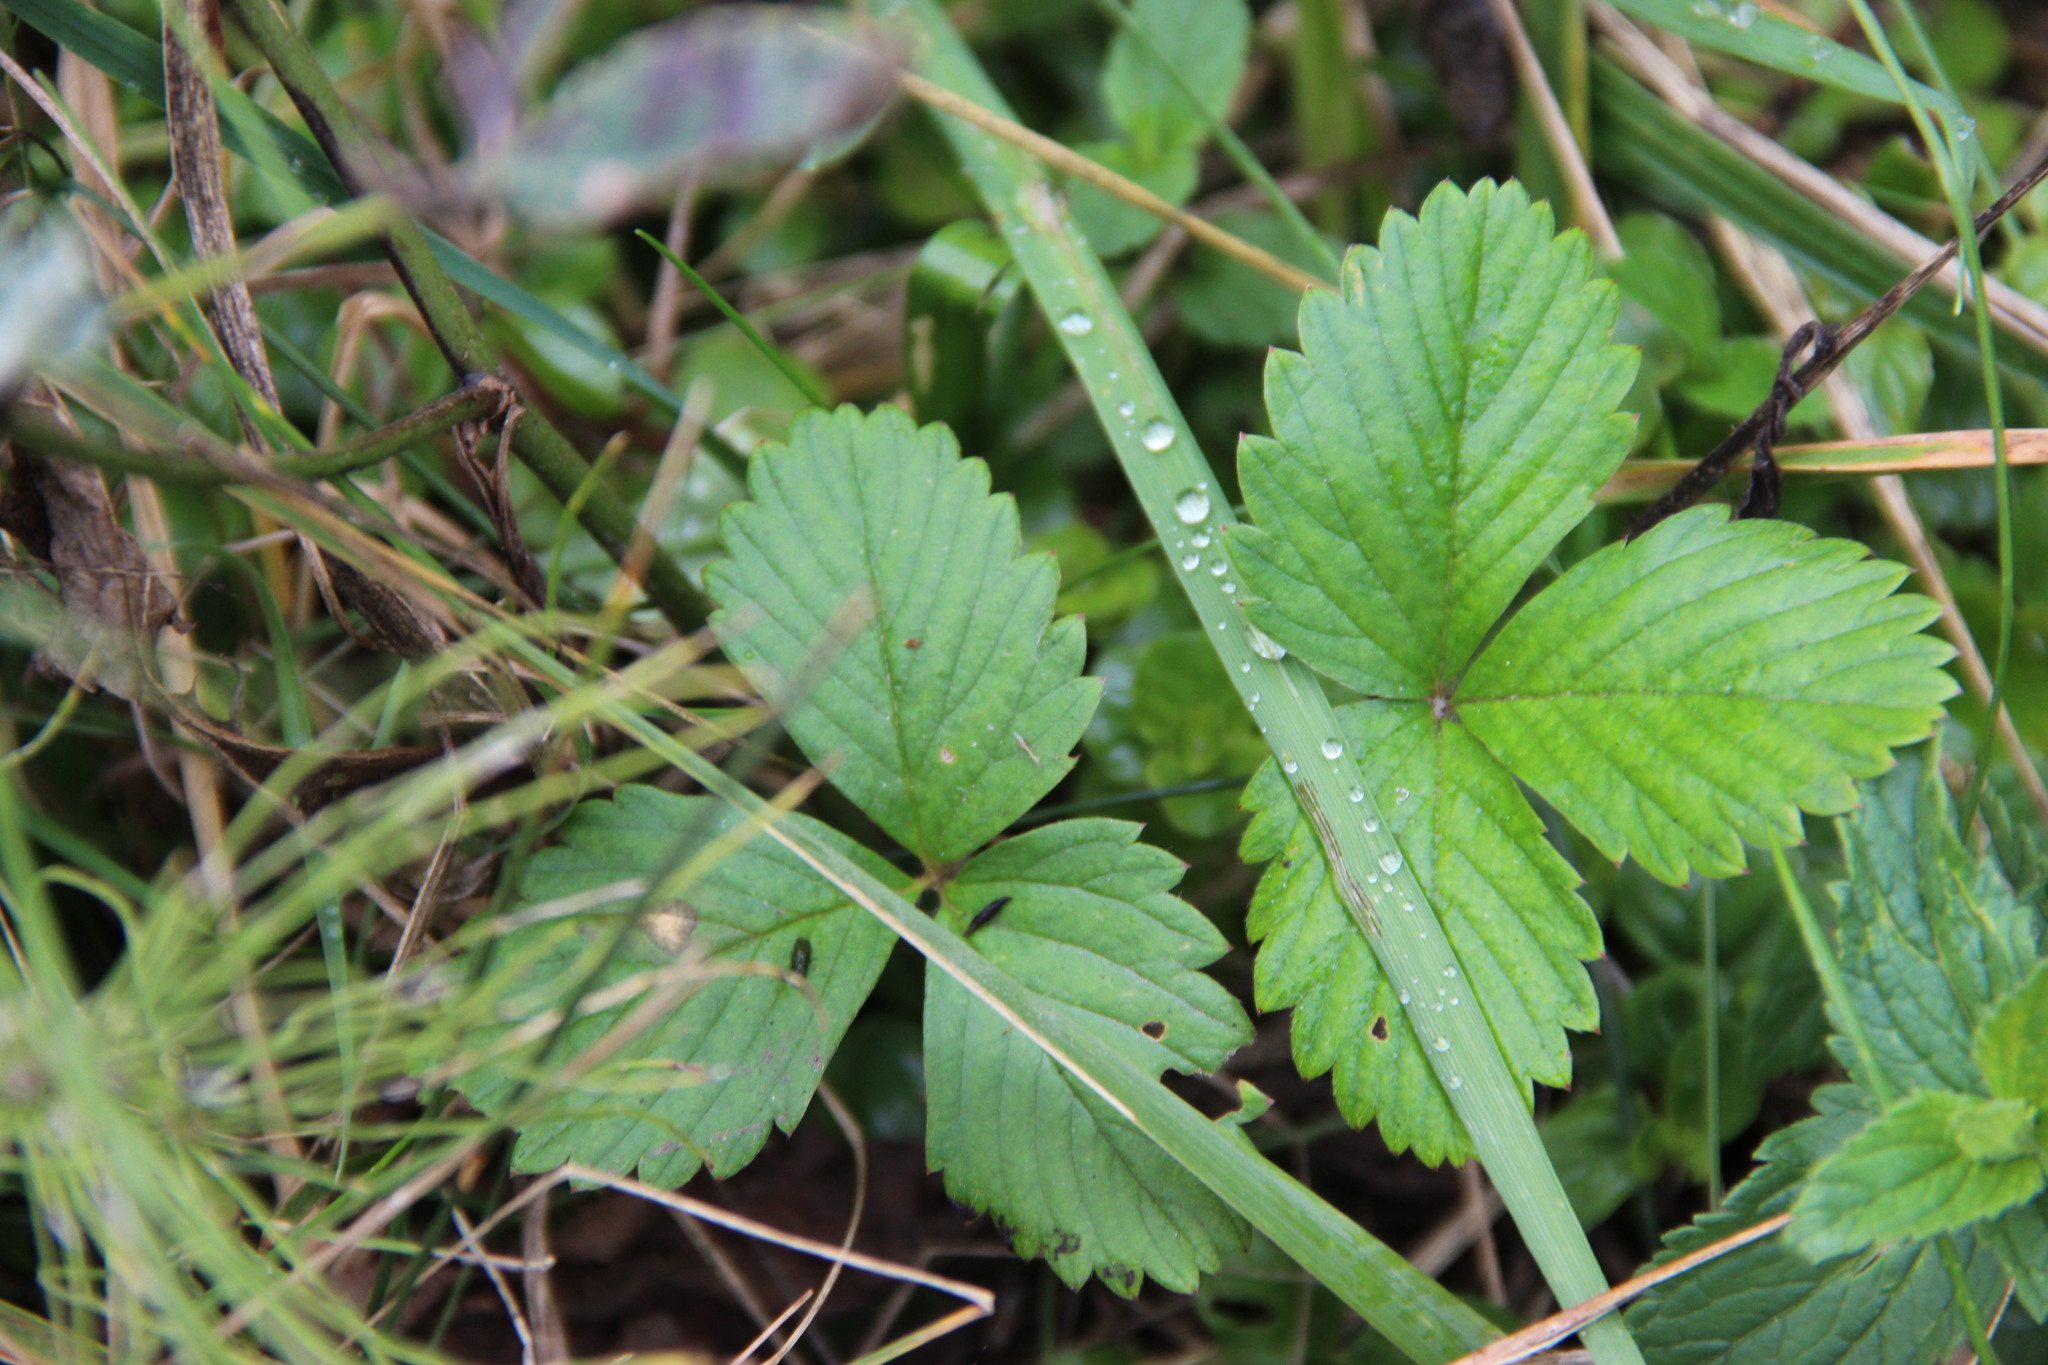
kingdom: Plantae
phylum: Tracheophyta
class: Magnoliopsida
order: Rosales
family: Rosaceae
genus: Fragaria
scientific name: Fragaria vesca
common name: Wild strawberry
